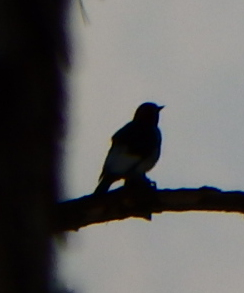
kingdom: Animalia
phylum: Chordata
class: Aves
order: Piciformes
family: Picidae
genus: Melanerpes
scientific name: Melanerpes erythrocephalus
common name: Red-headed woodpecker
